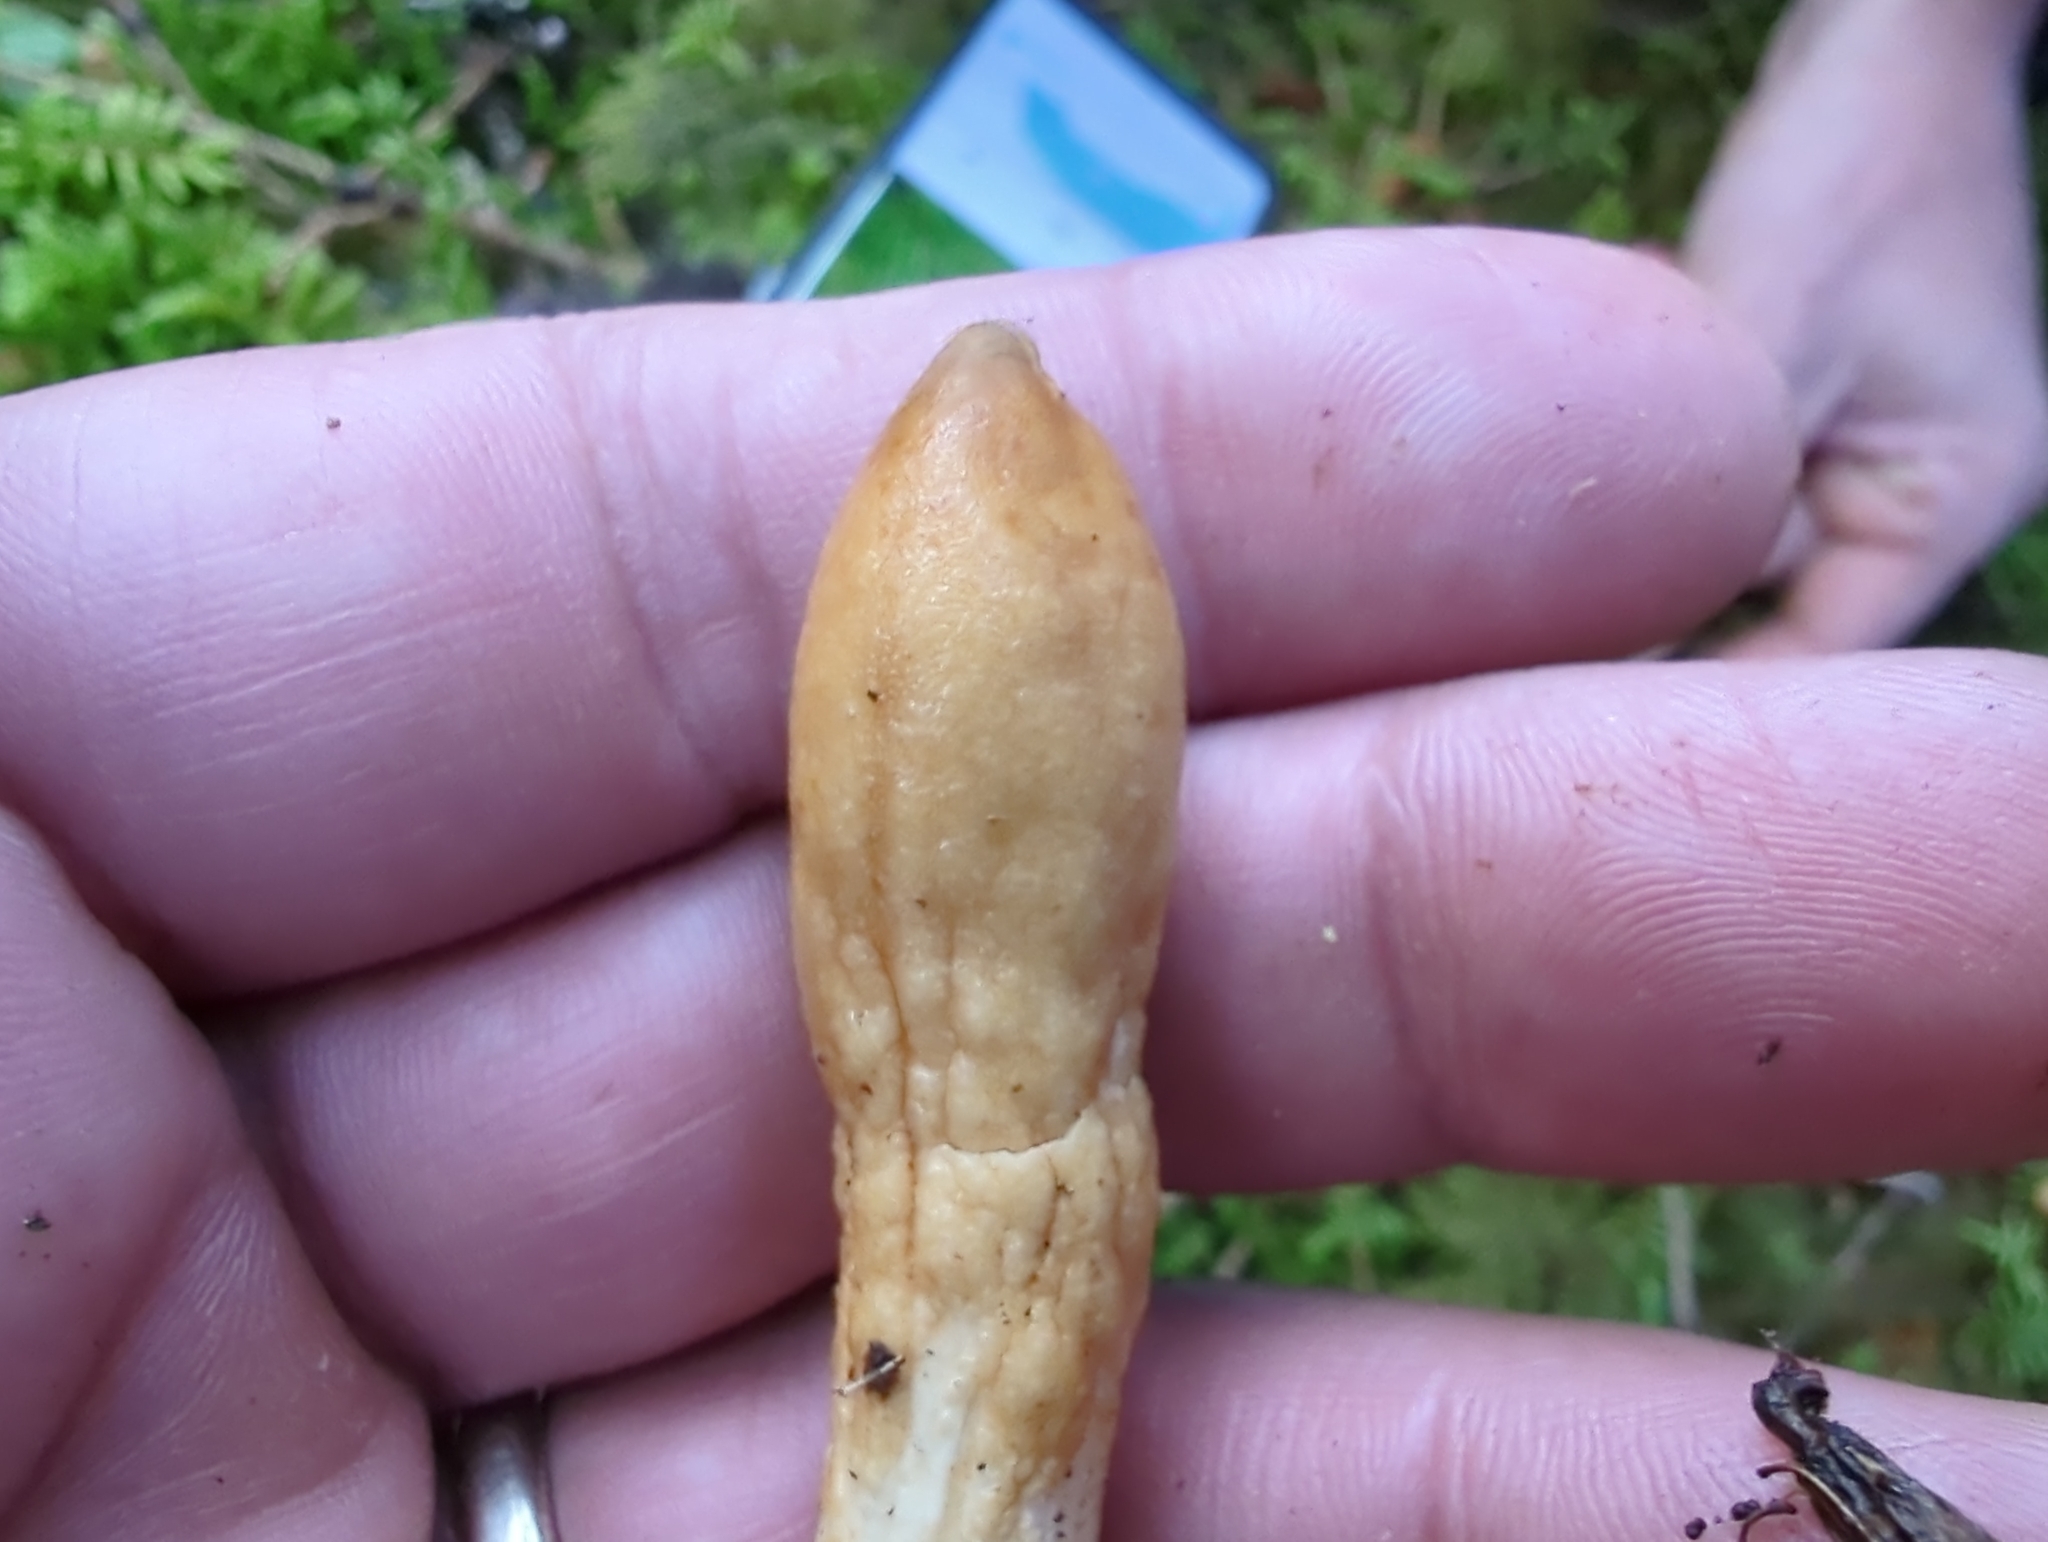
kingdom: Fungi
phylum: Ascomycota
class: Sordariomycetes
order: Hypocreales
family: Hypocreaceae
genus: Trichoderma
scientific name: Trichoderma leucopus
